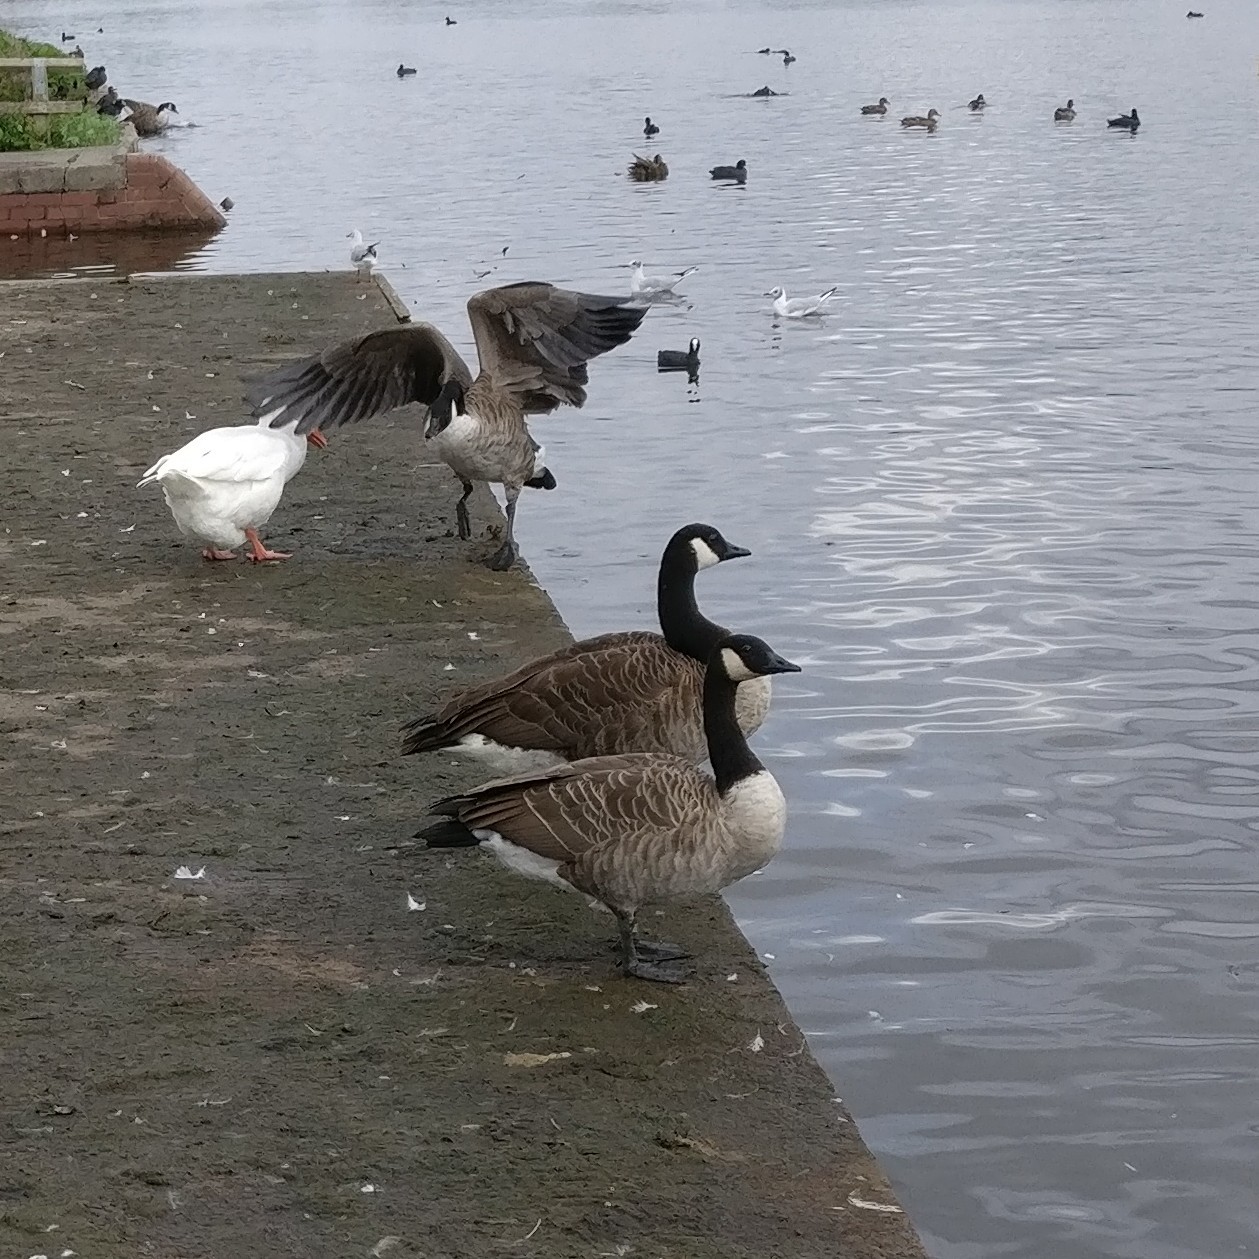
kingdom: Animalia
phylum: Chordata
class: Aves
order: Anseriformes
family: Anatidae
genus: Branta
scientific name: Branta canadensis
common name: Canada goose
